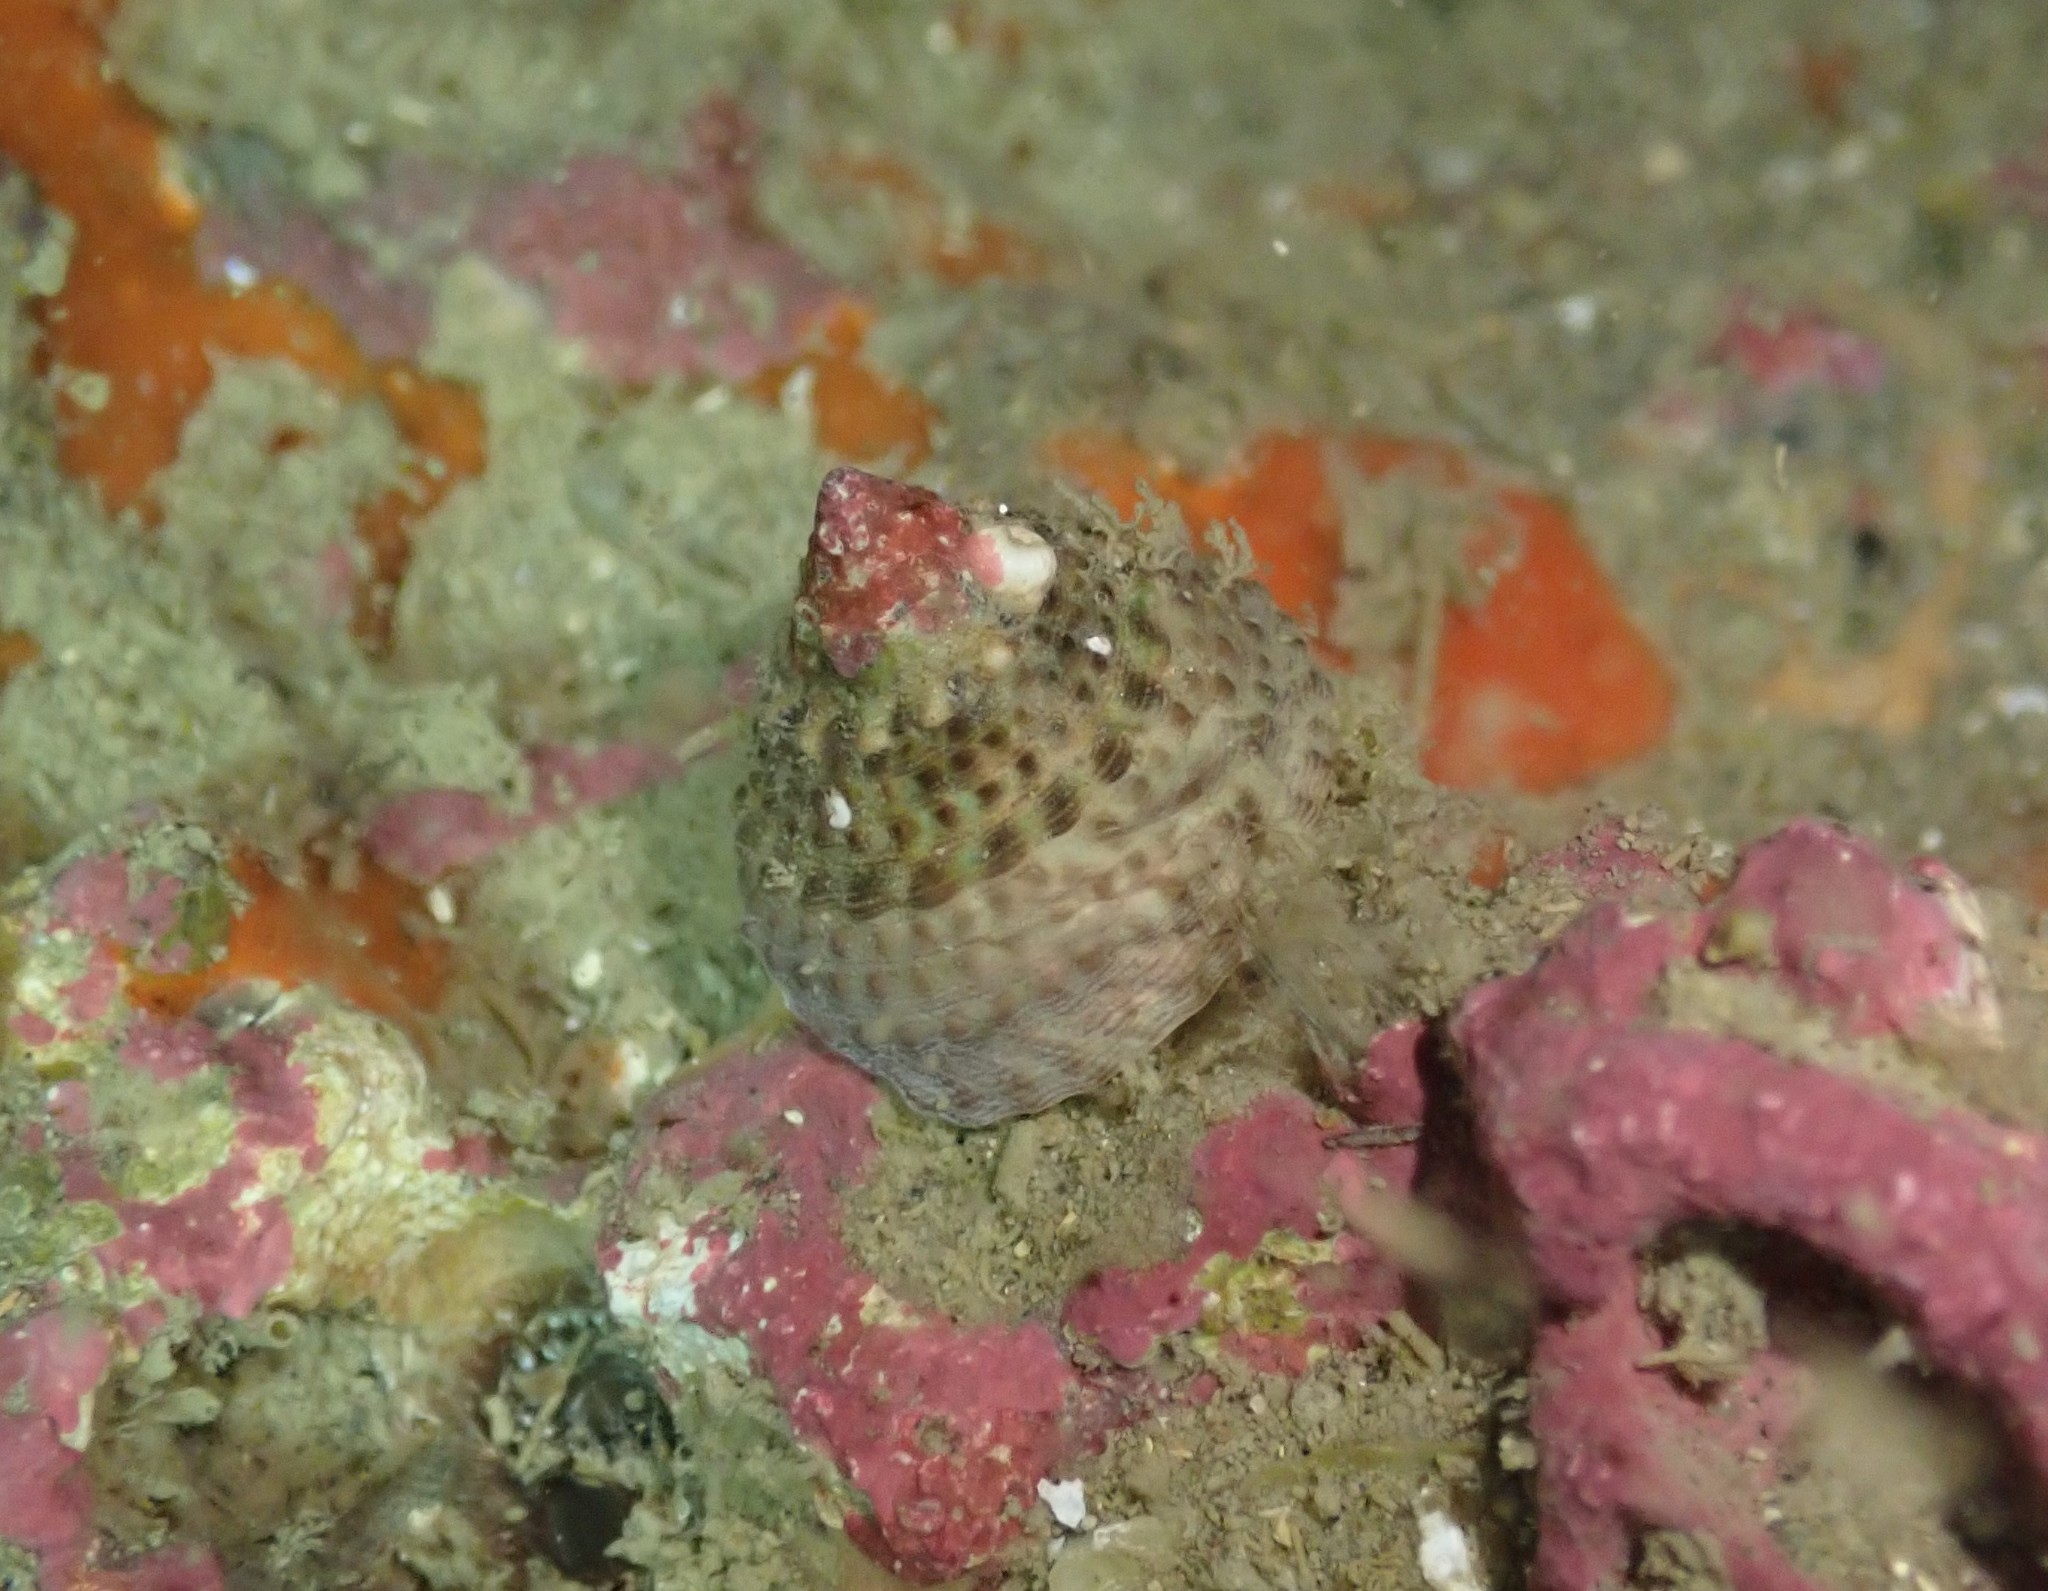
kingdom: Animalia
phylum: Mollusca
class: Gastropoda
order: Trochida
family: Trochidae
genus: Coelotrochus
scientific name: Coelotrochus viridis
